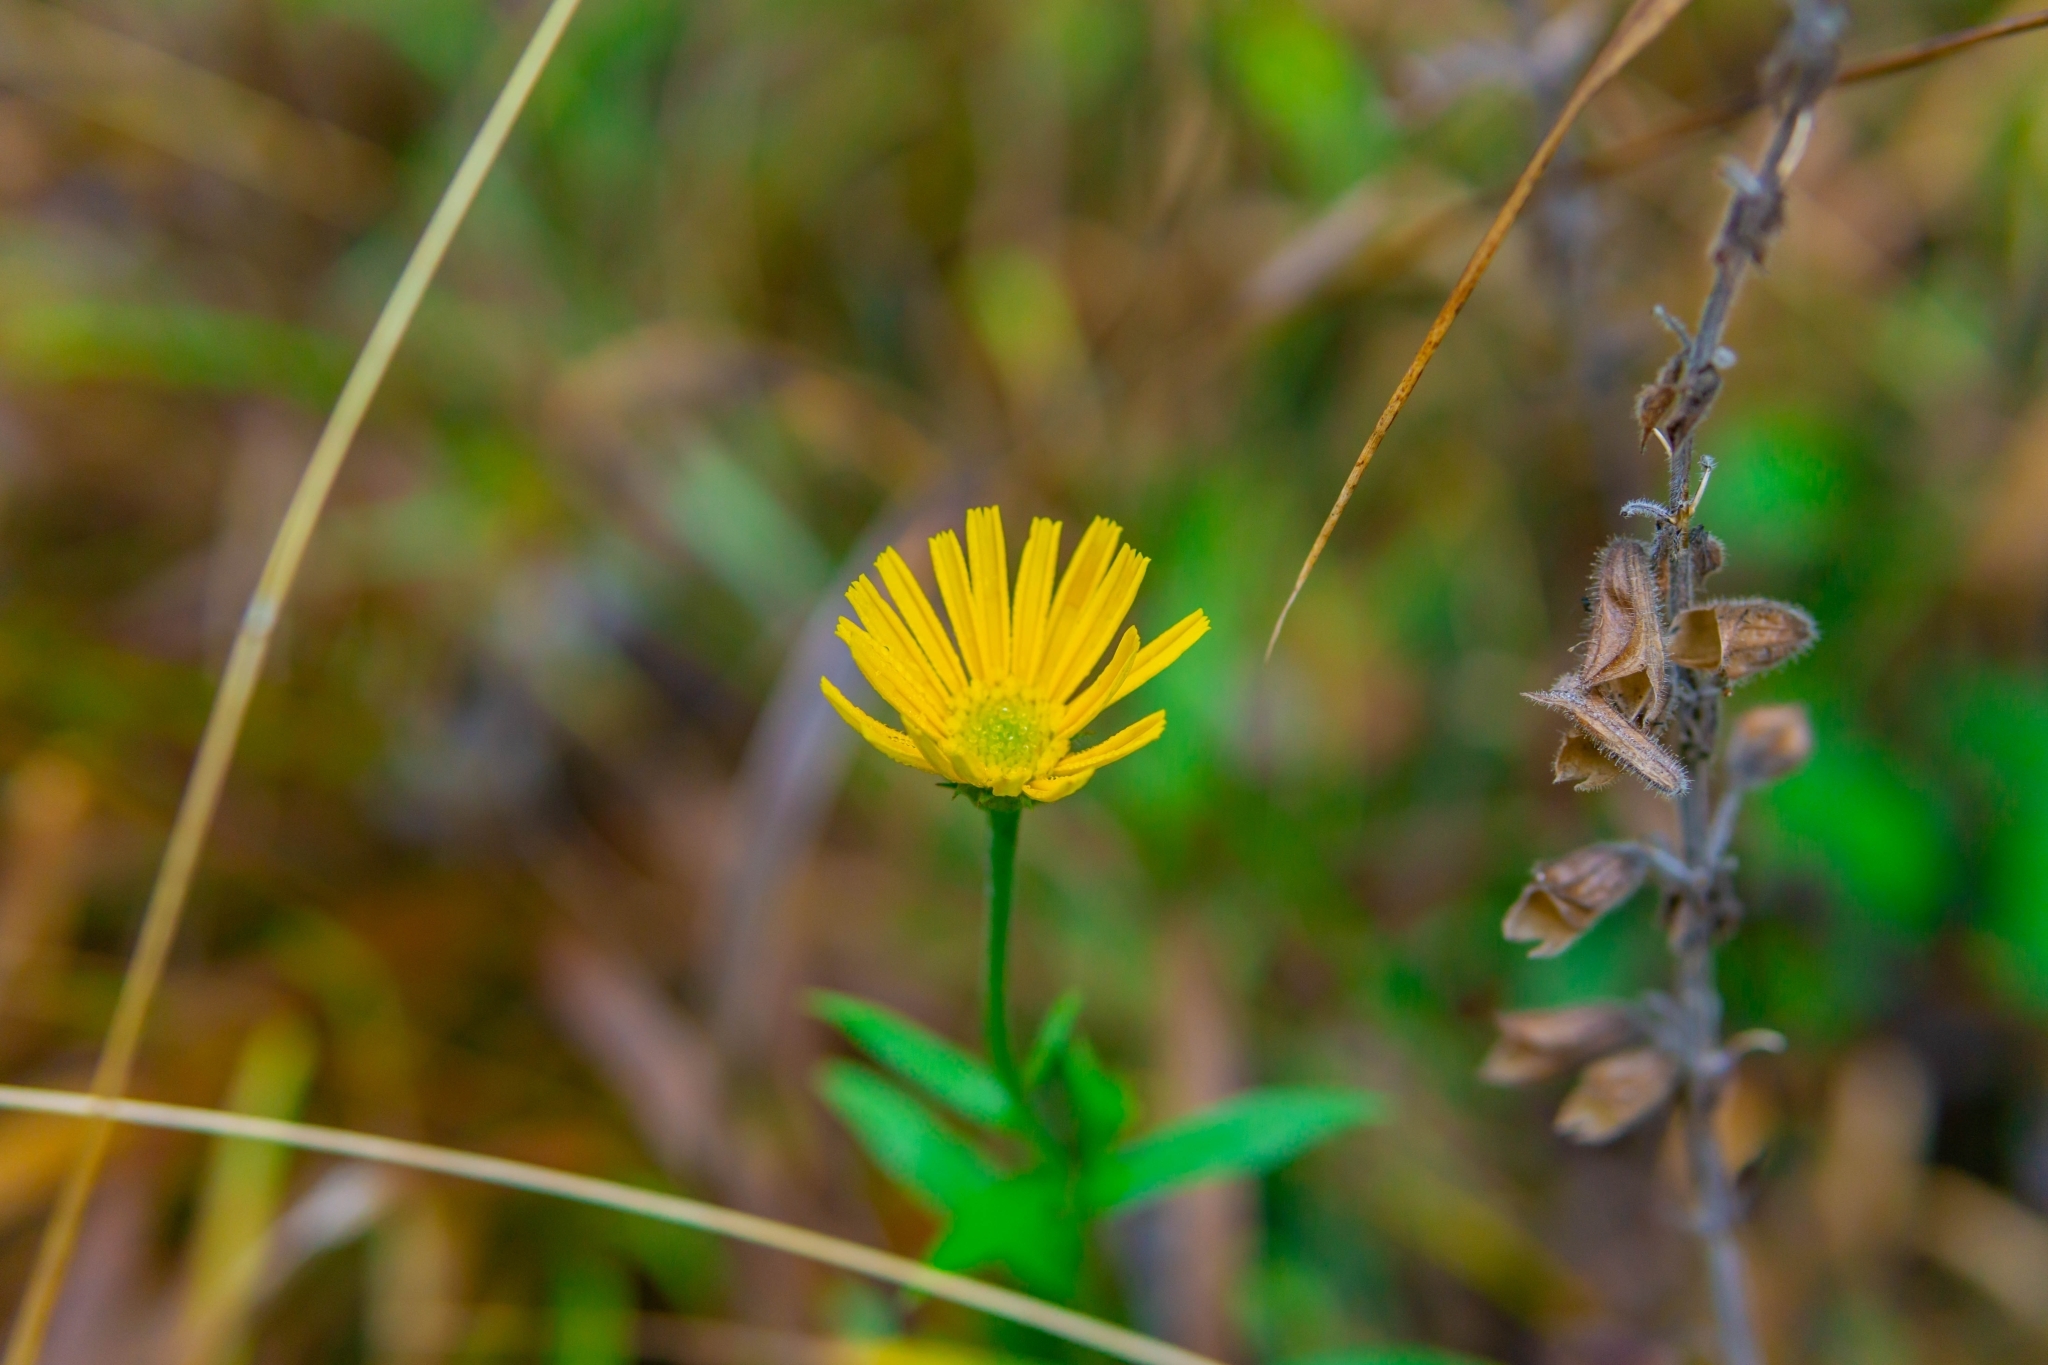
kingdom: Plantae
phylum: Tracheophyta
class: Magnoliopsida
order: Asterales
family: Asteraceae
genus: Buphthalmum
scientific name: Buphthalmum salicifolium
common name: Willow-leaved yellow-oxeye
